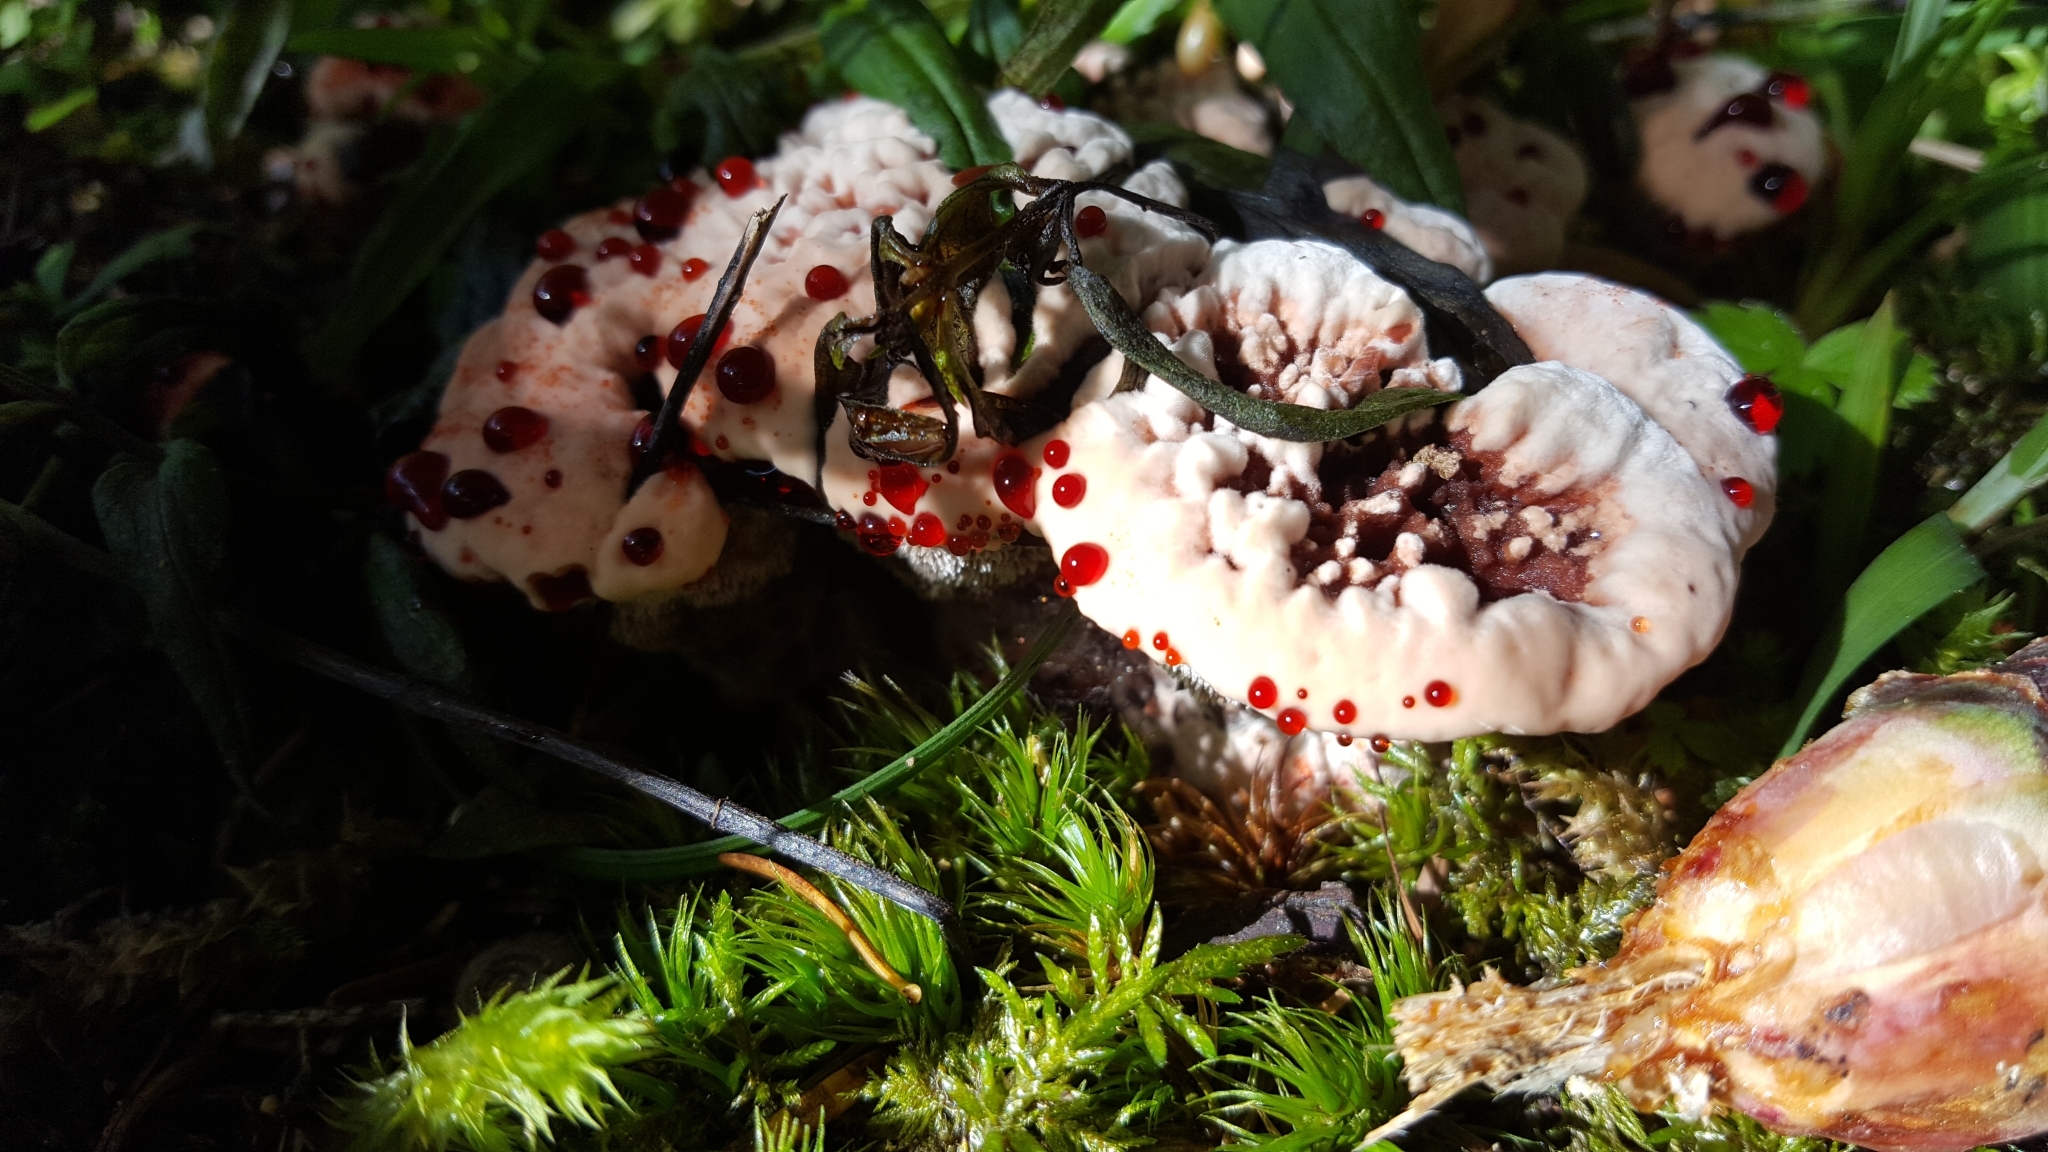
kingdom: Fungi
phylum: Basidiomycota
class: Agaricomycetes
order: Thelephorales
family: Bankeraceae
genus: Hydnellum
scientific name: Hydnellum peckii
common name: Devil's tooth
